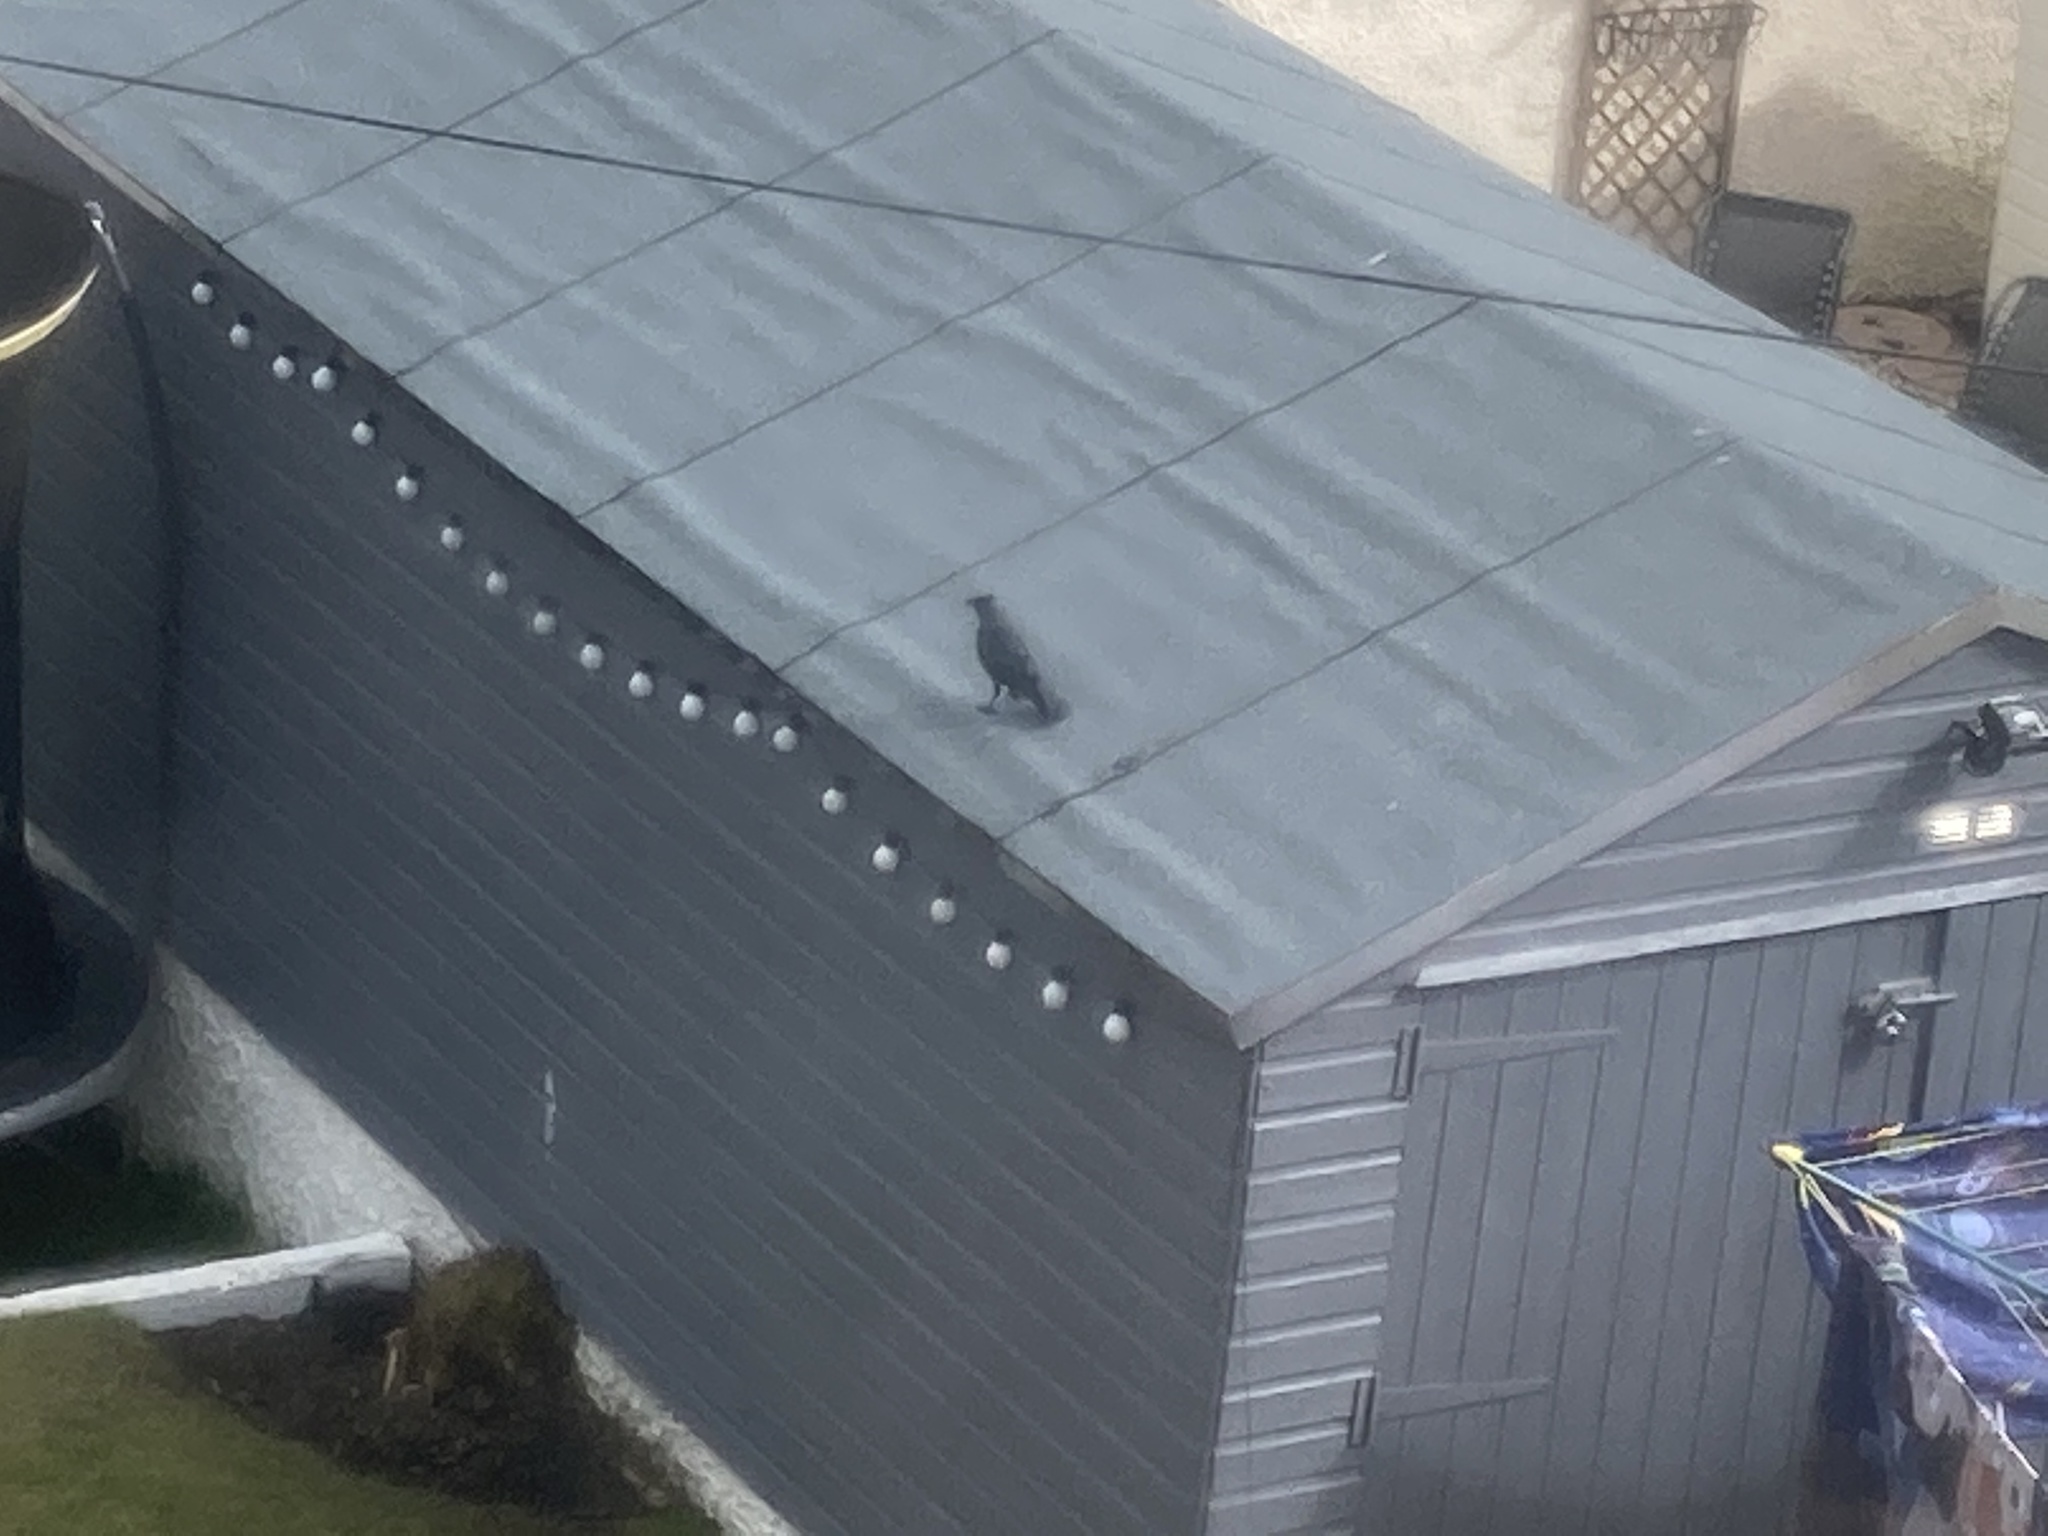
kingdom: Animalia
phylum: Chordata
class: Aves
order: Passeriformes
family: Corvidae
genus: Coloeus
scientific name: Coloeus monedula
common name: Western jackdaw
